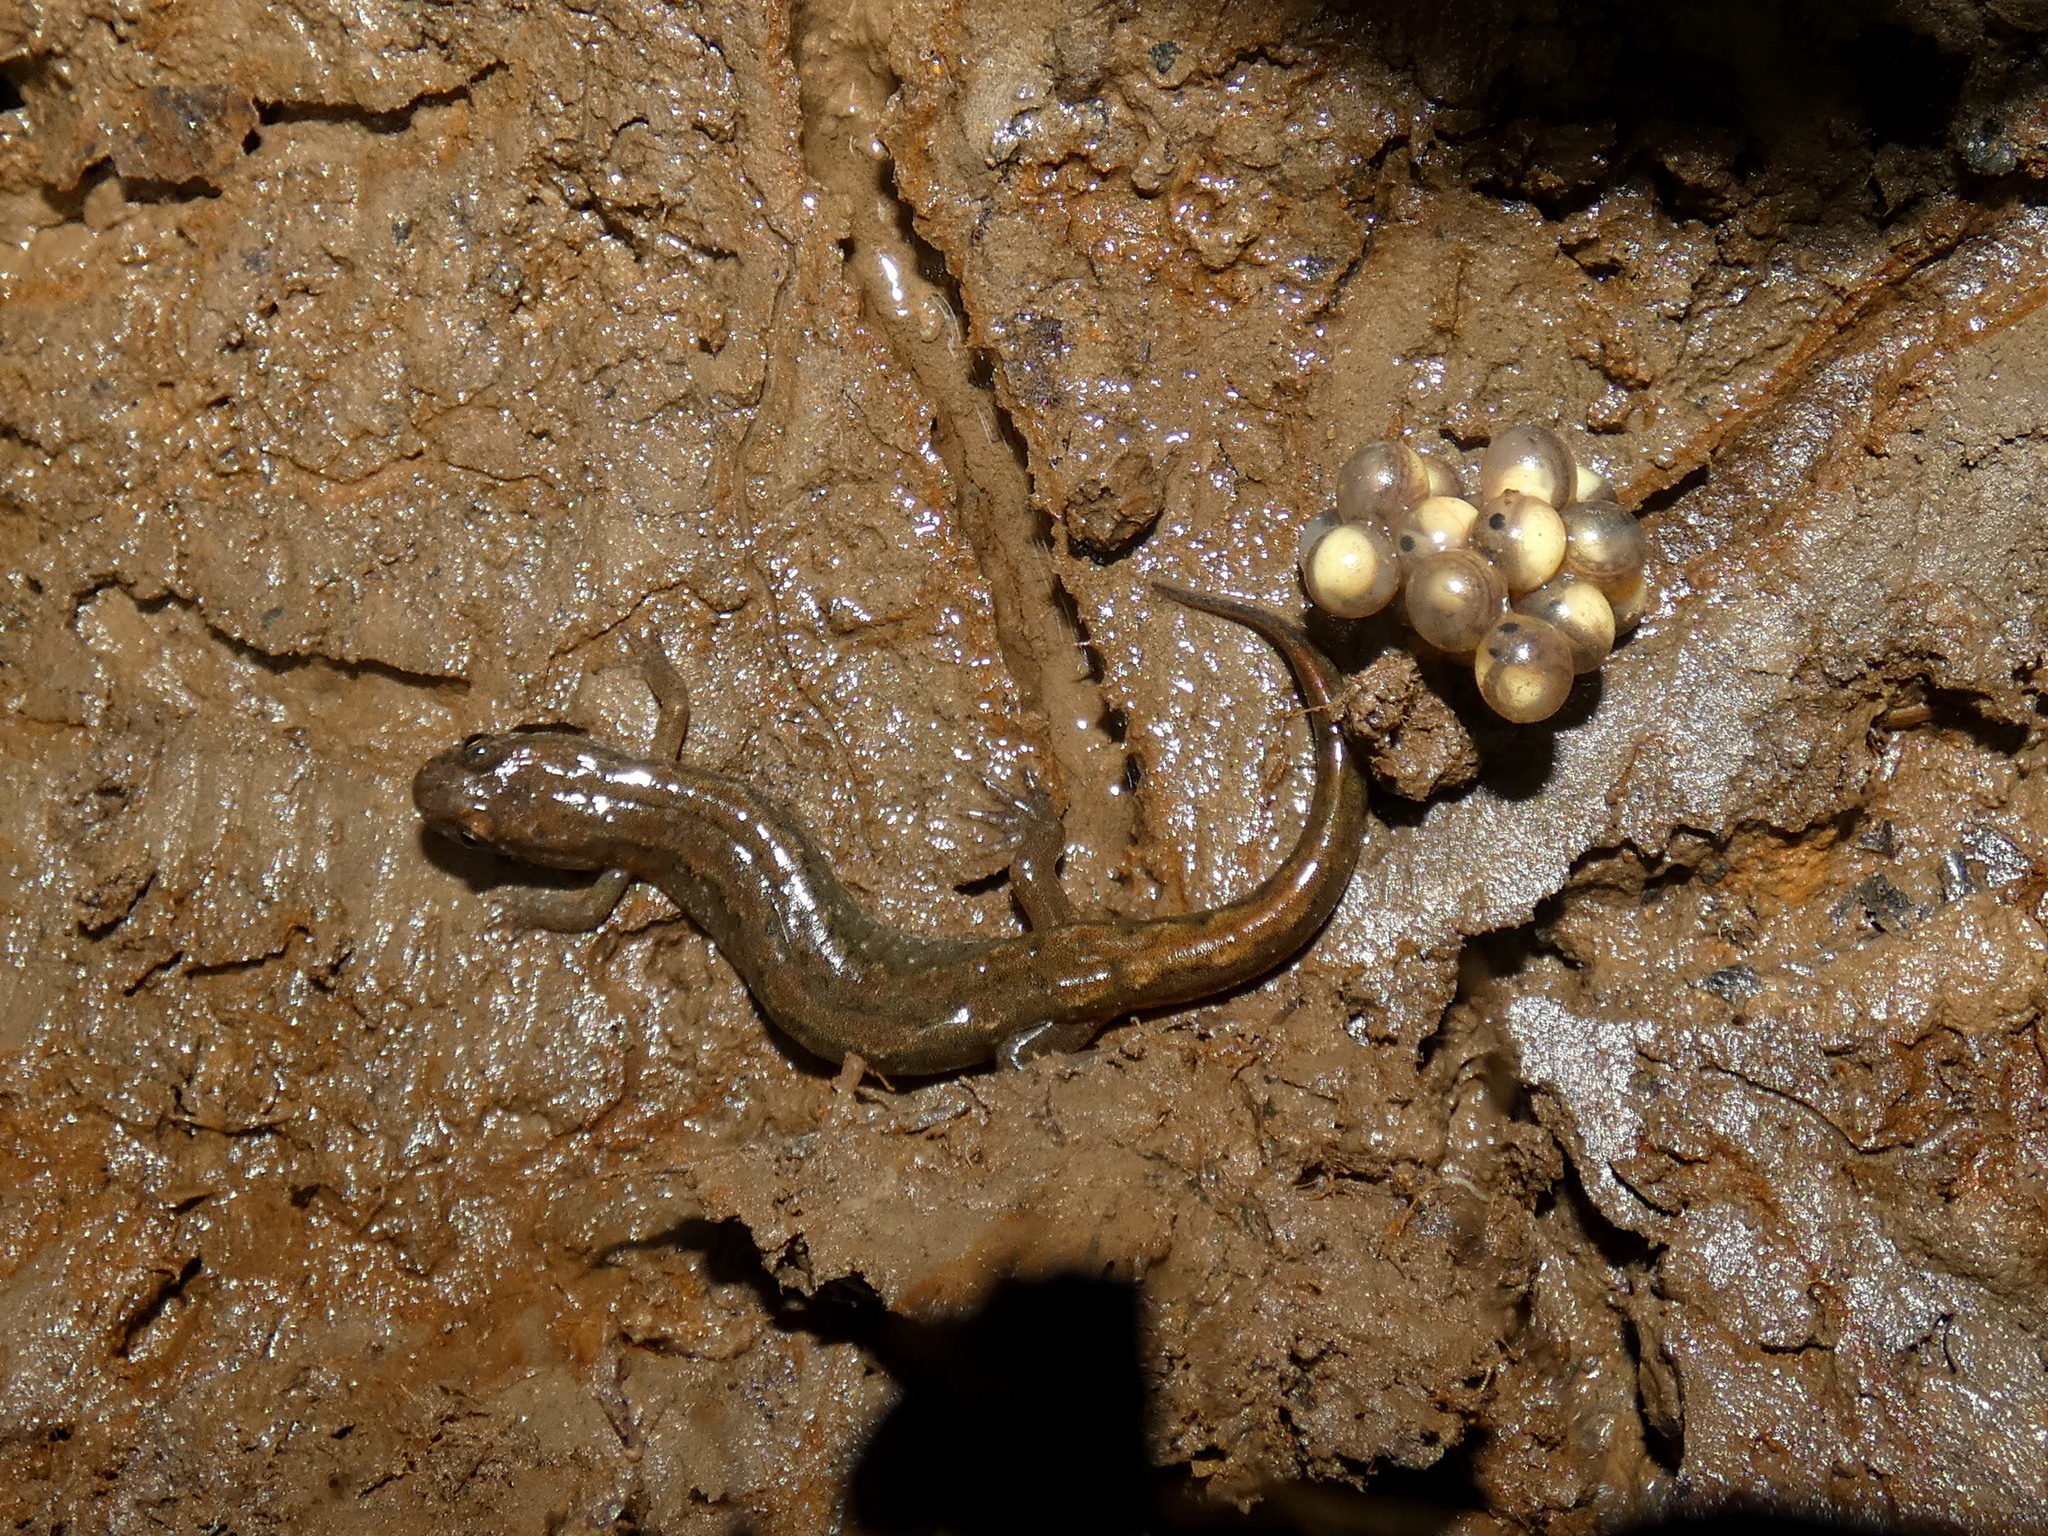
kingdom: Animalia
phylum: Chordata
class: Amphibia
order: Caudata
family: Plethodontidae
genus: Desmognathus
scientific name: Desmognathus fuscus
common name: Northern dusky salamander
